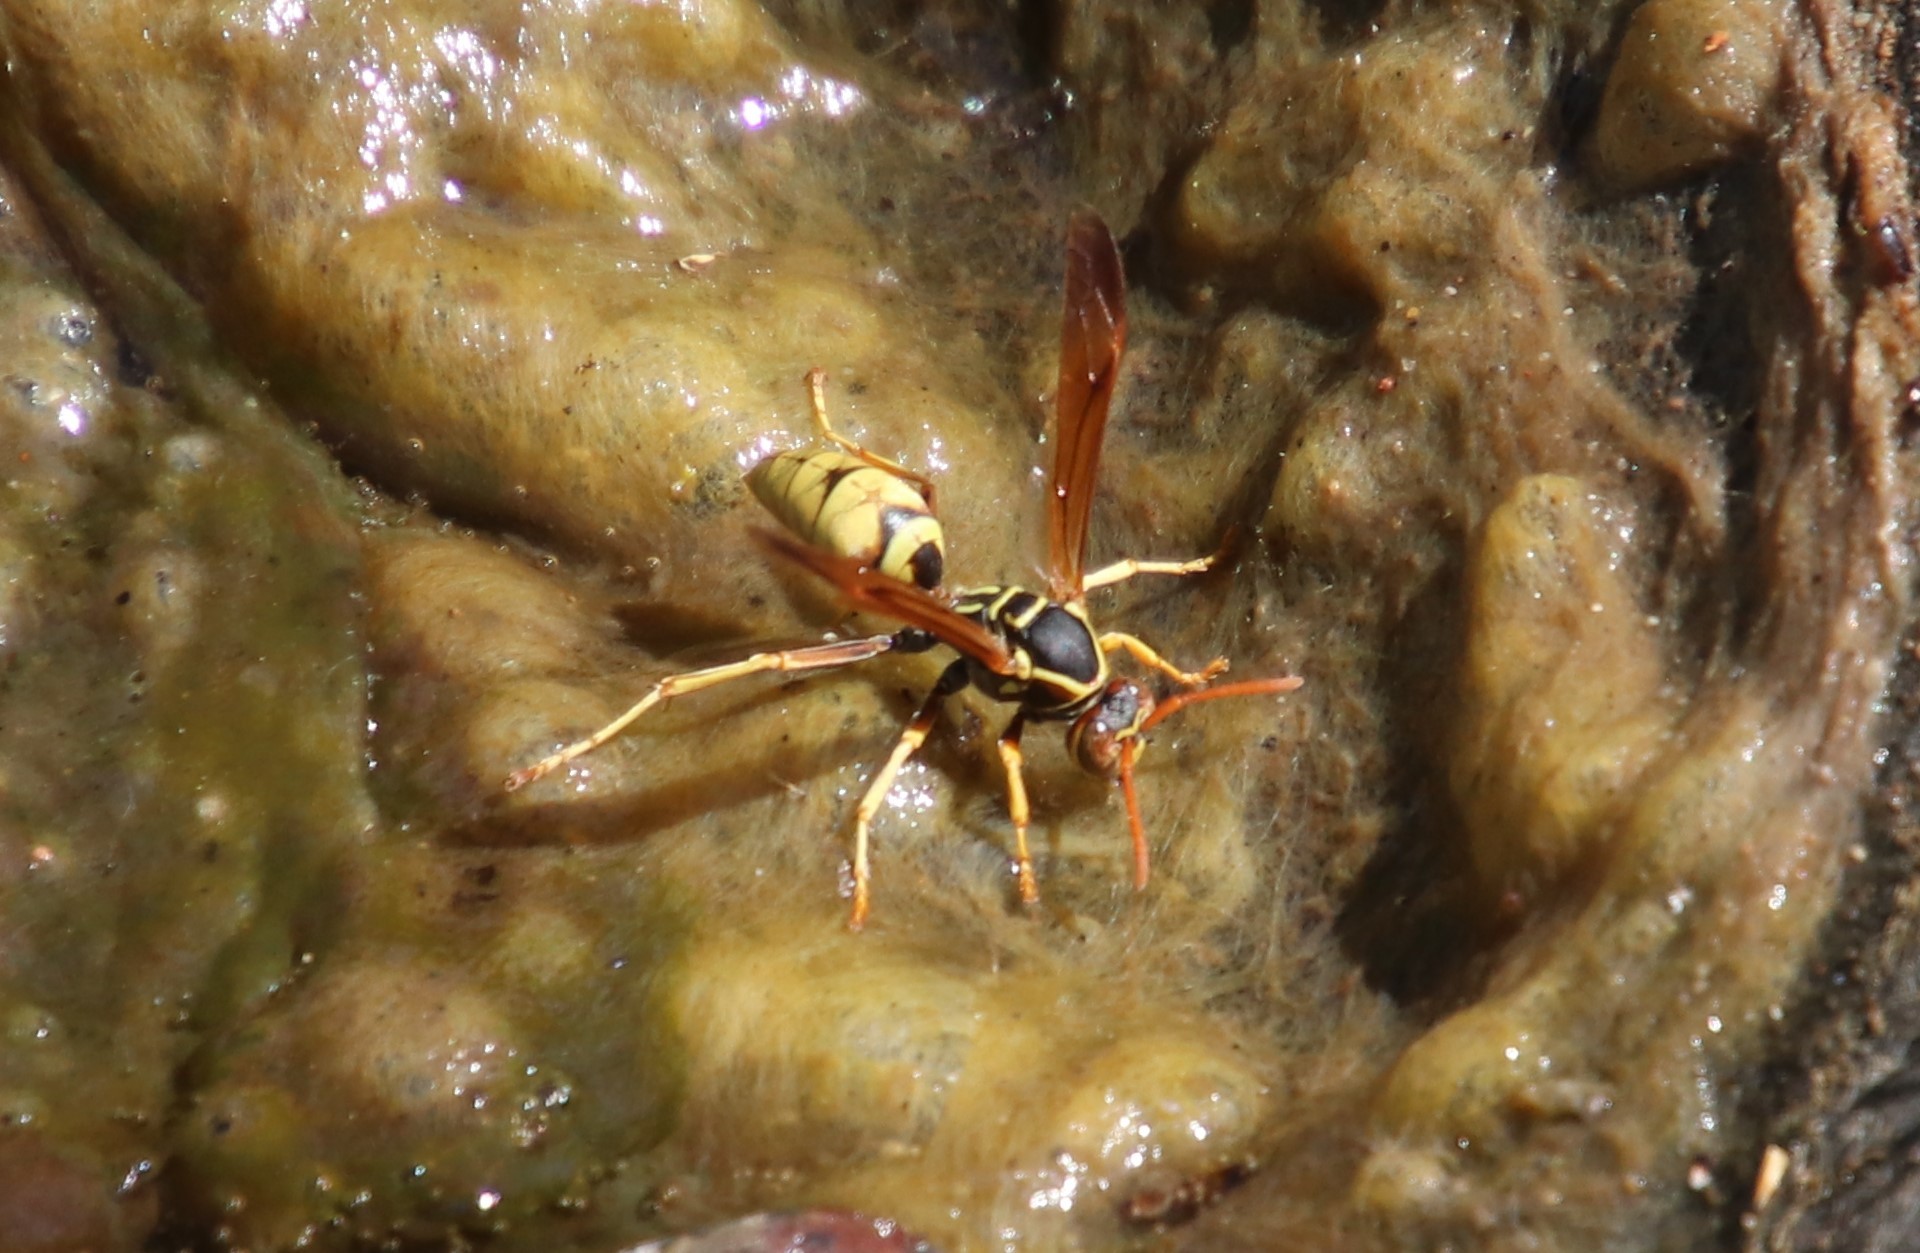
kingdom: Animalia
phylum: Arthropoda
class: Insecta
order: Hymenoptera
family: Eumenidae
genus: Polistes
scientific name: Polistes aurifer
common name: Paper wasp
